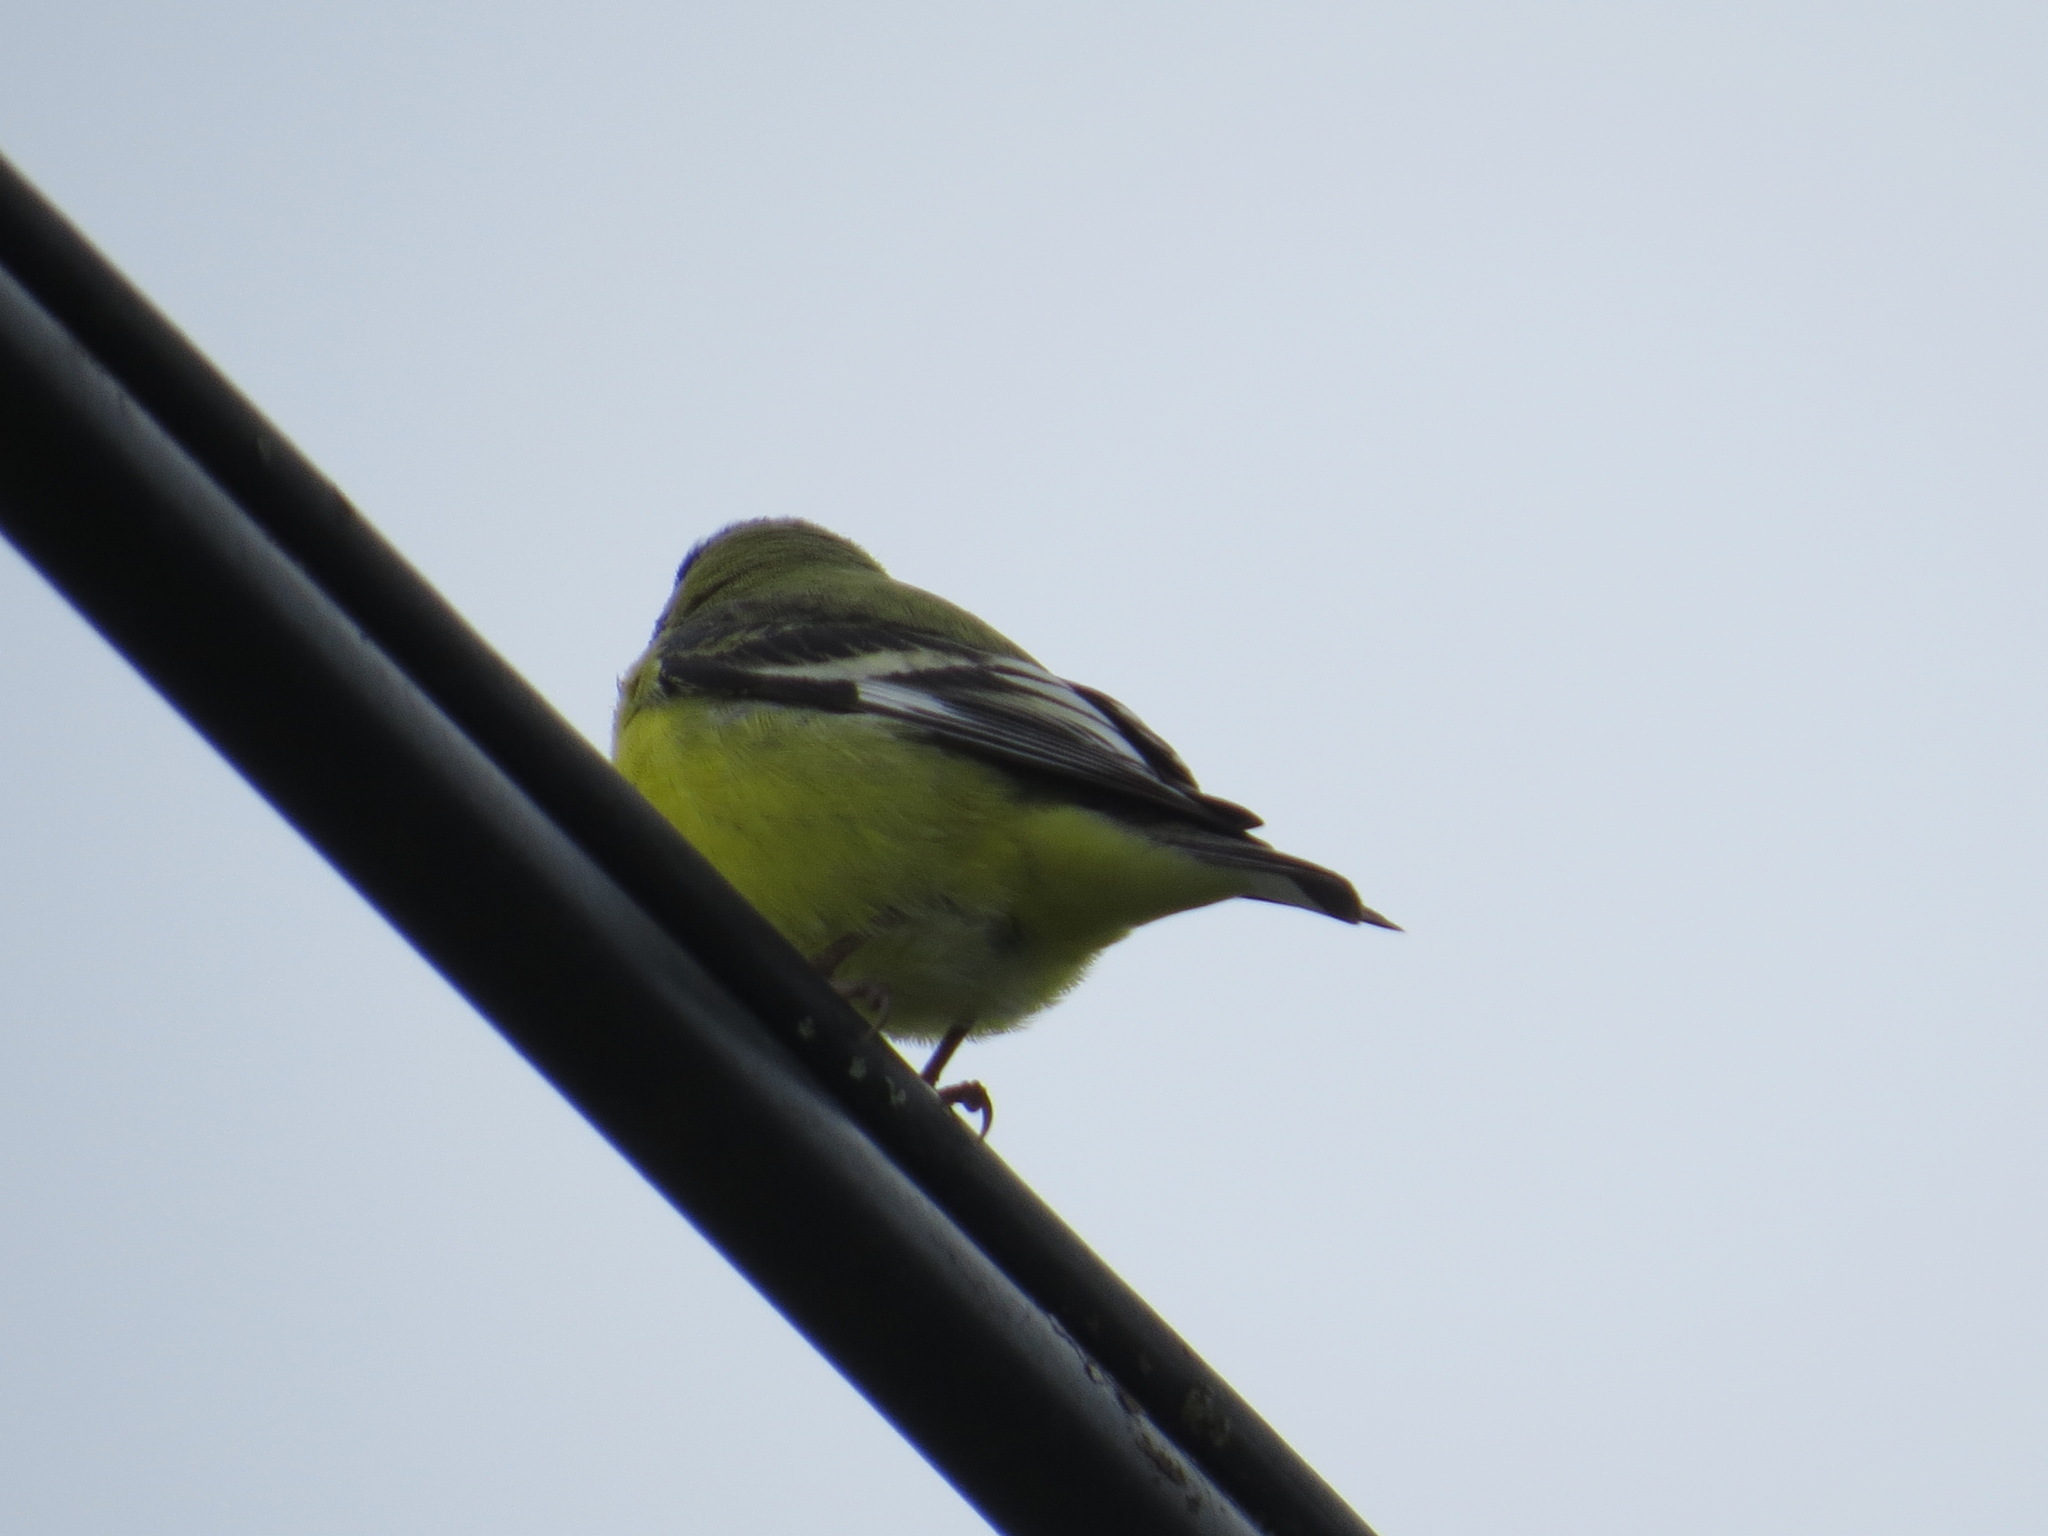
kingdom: Animalia
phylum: Chordata
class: Aves
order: Passeriformes
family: Fringillidae
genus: Spinus
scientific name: Spinus psaltria
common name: Lesser goldfinch
